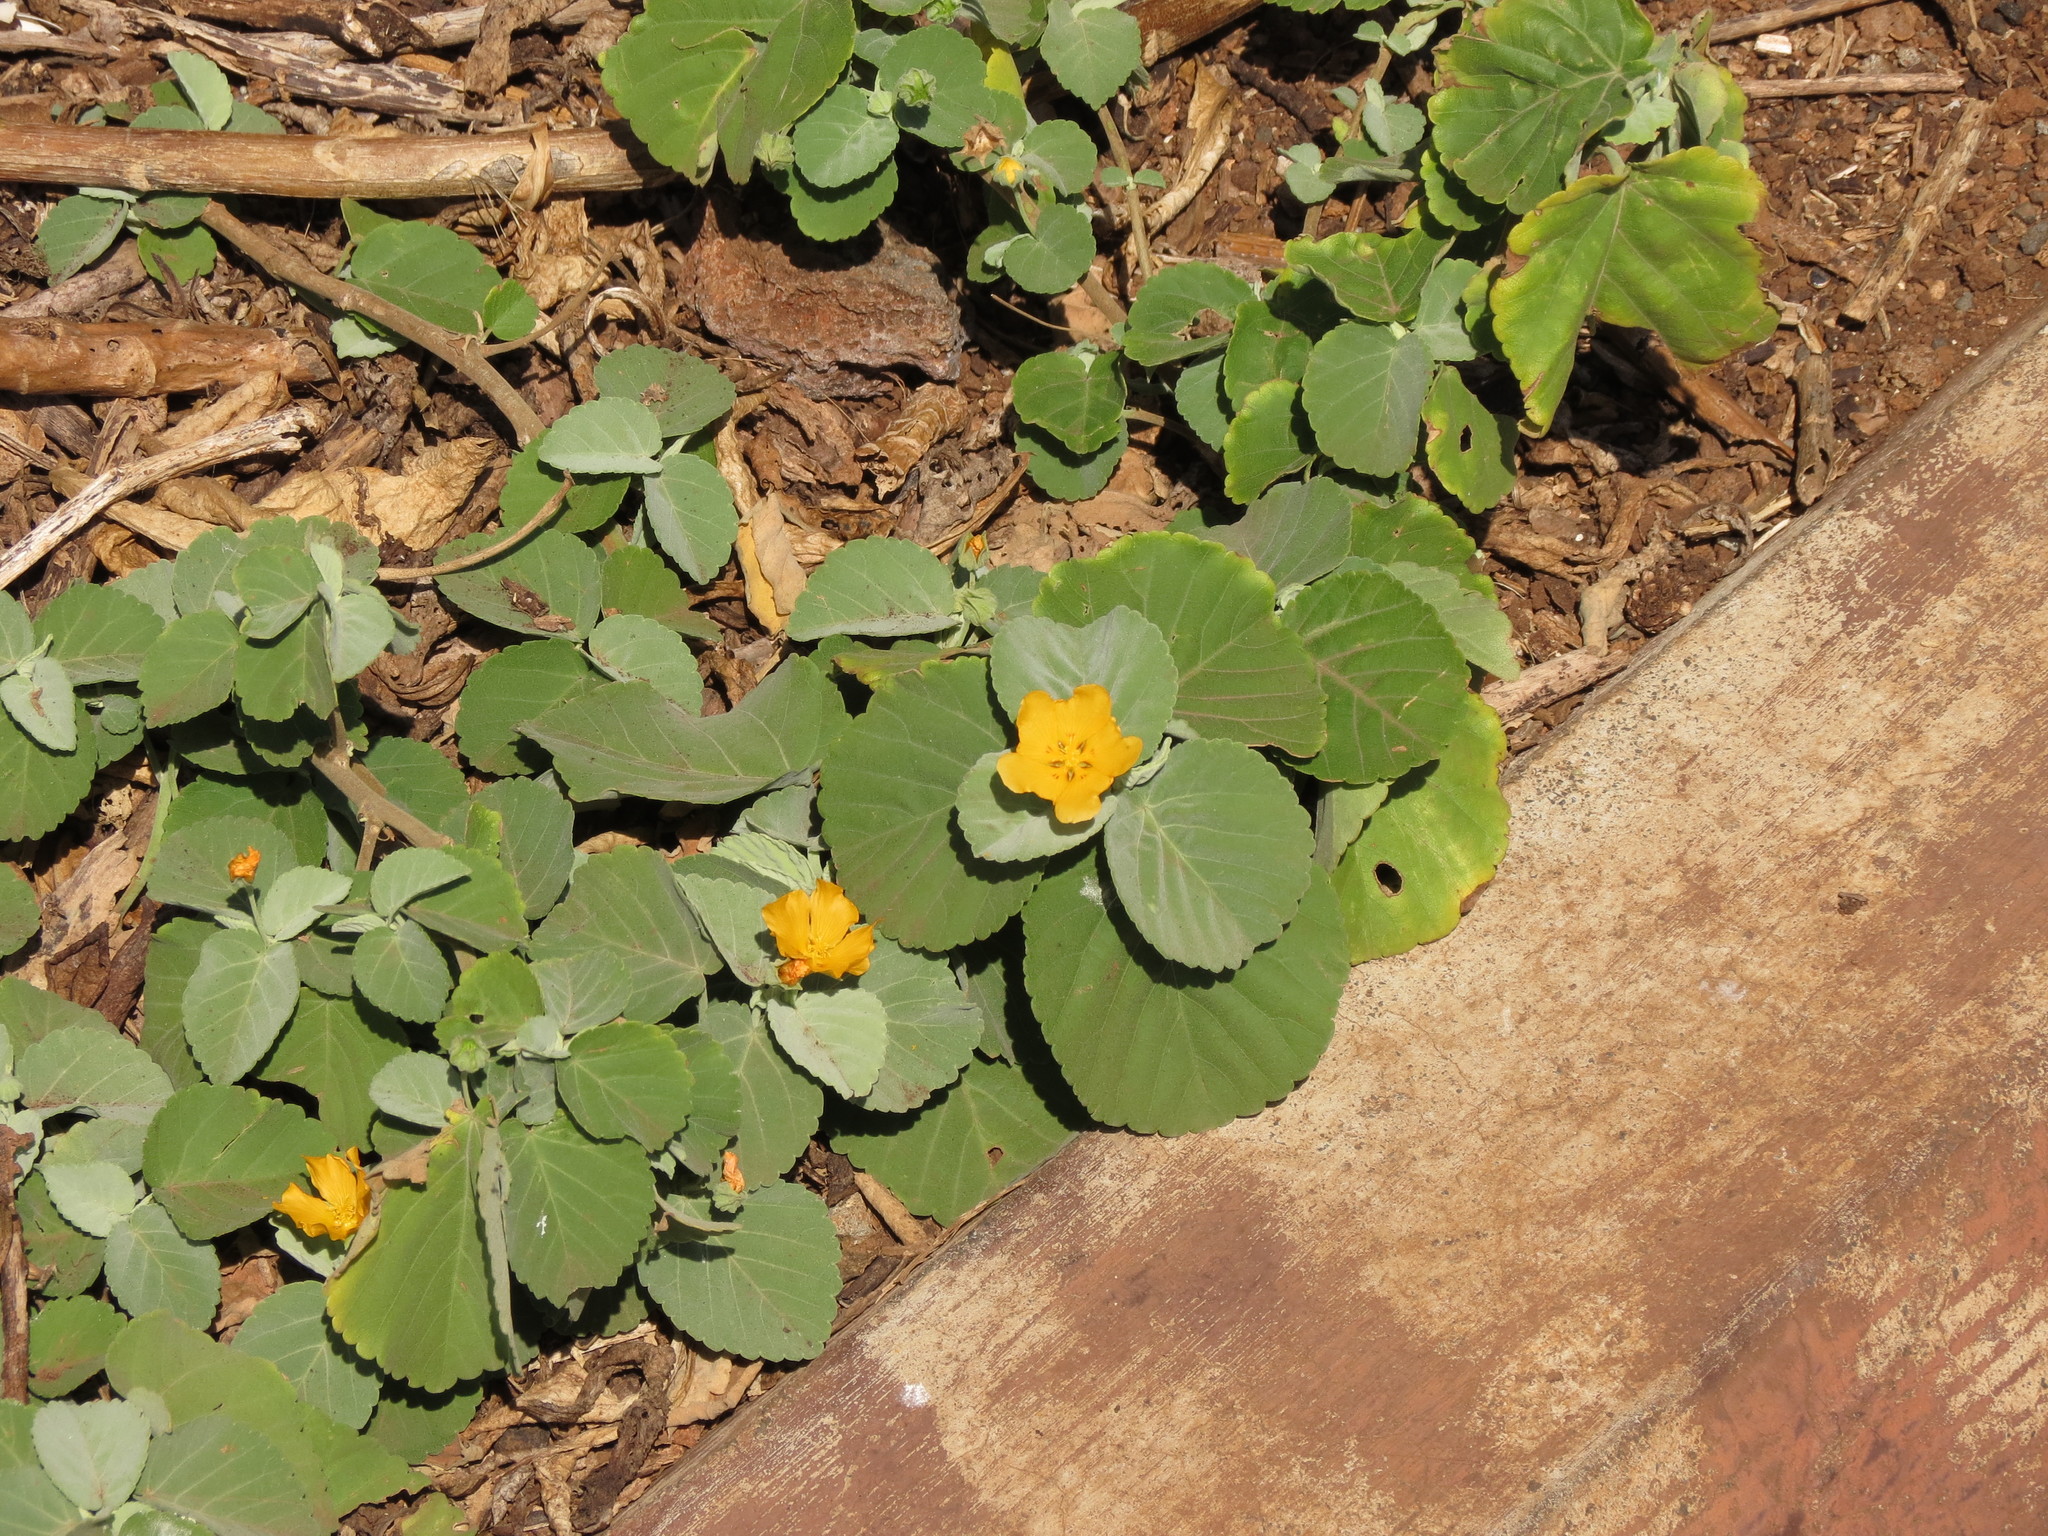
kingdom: Plantae
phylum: Tracheophyta
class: Magnoliopsida
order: Malvales
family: Malvaceae
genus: Sida
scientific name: Sida fallax
